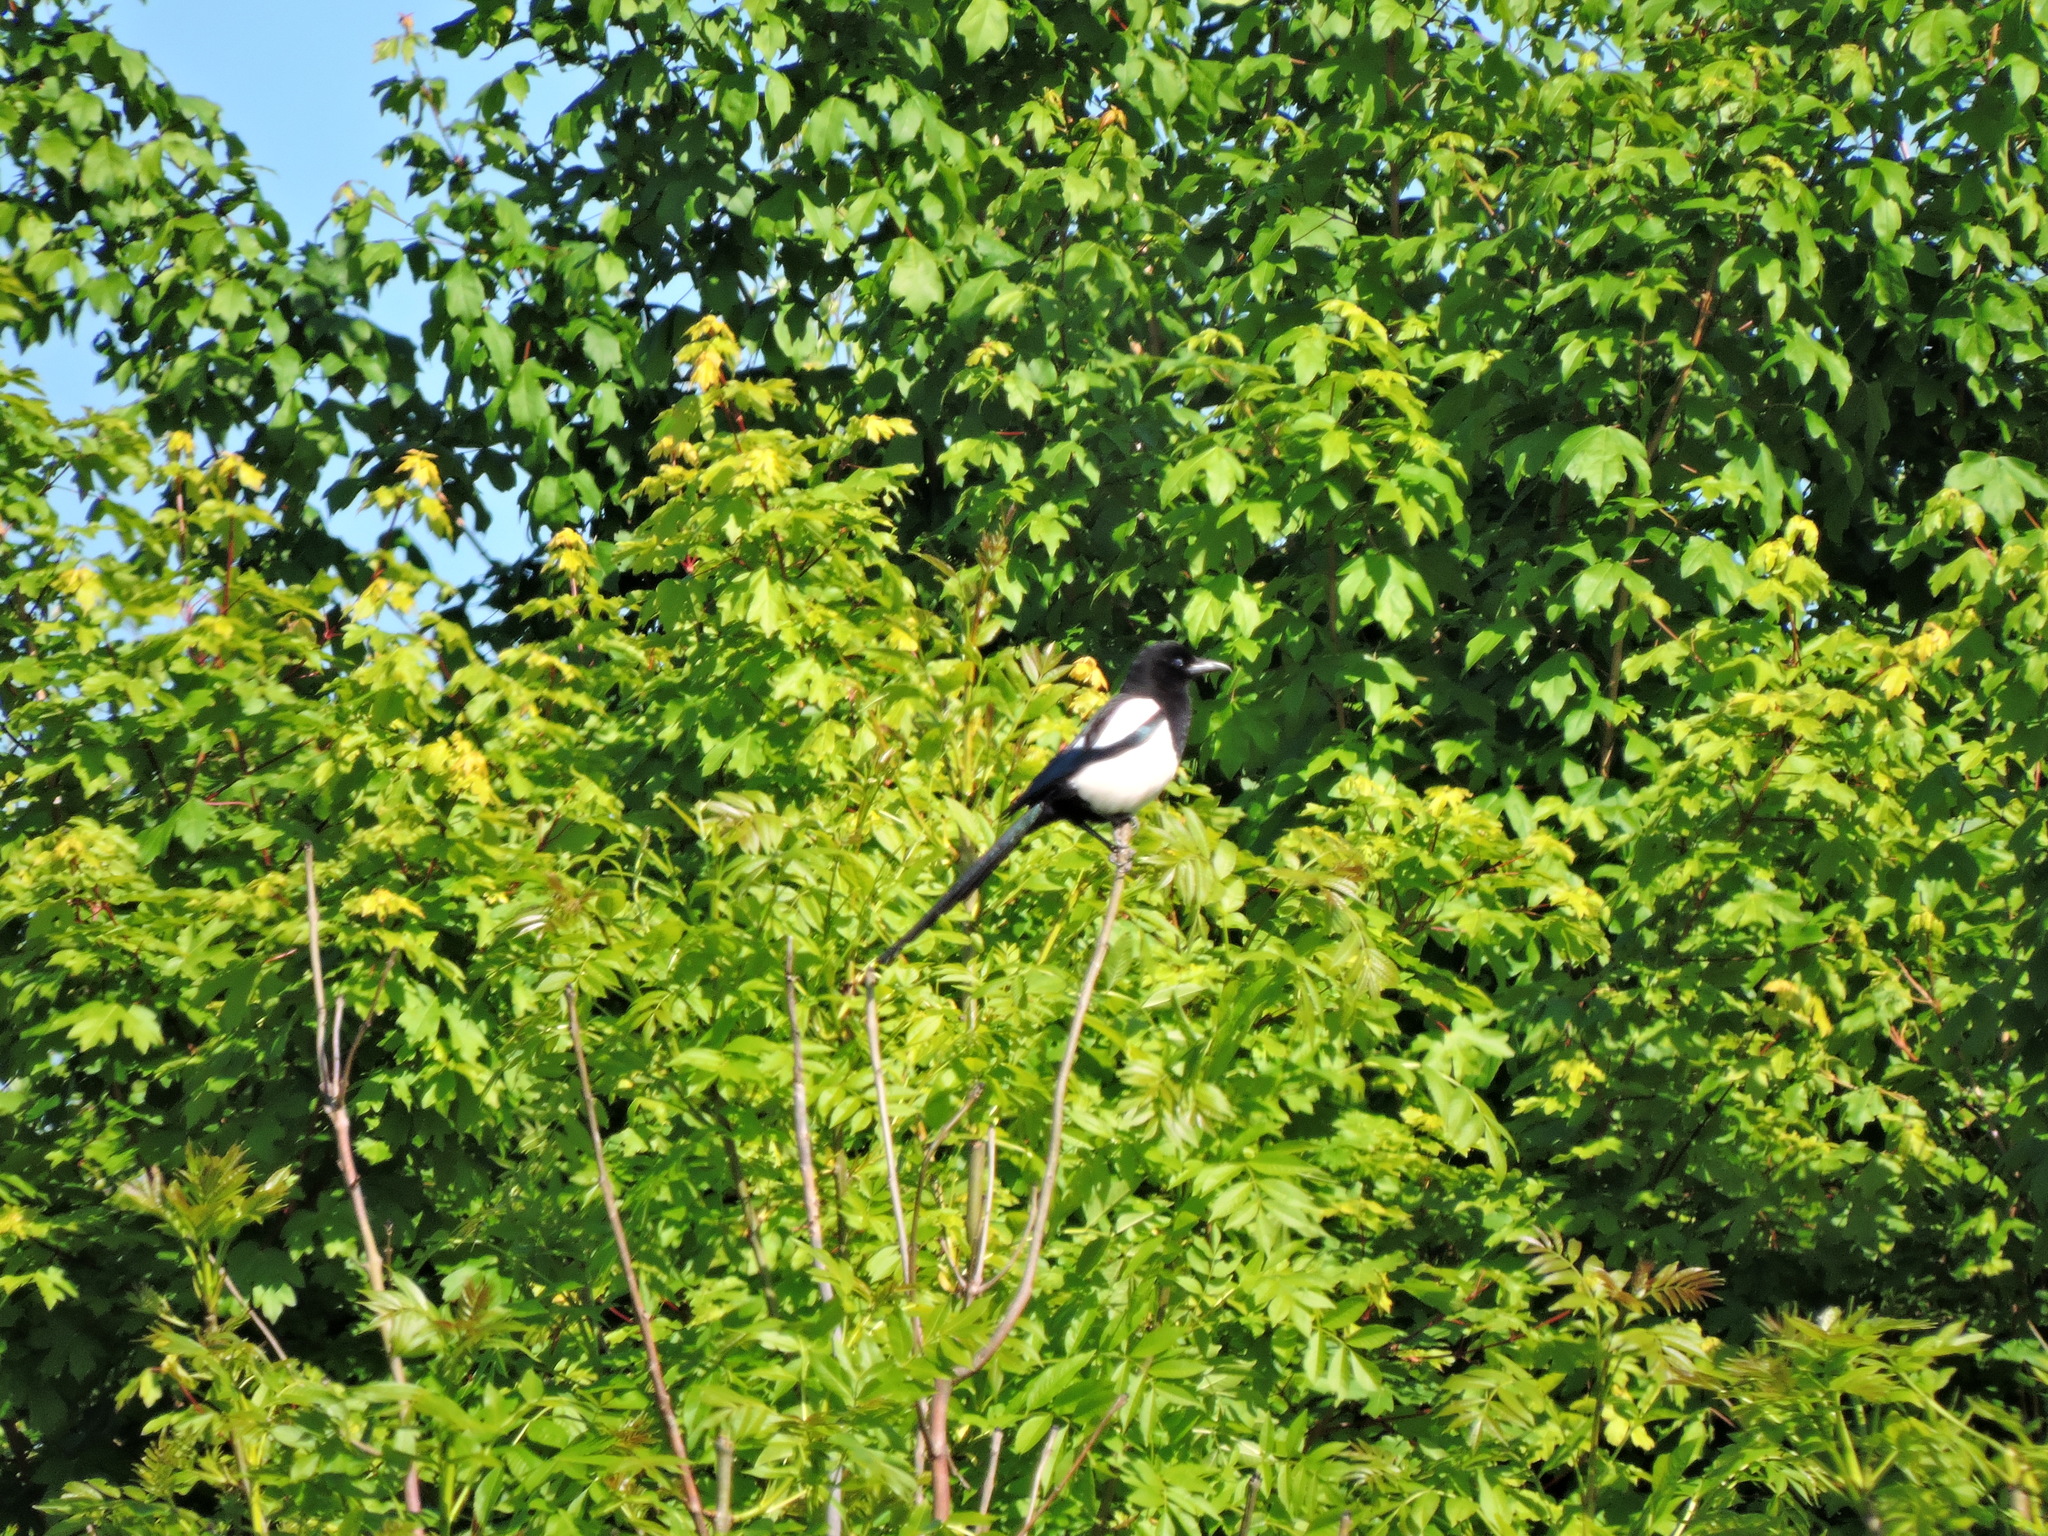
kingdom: Animalia
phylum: Chordata
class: Aves
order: Passeriformes
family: Corvidae
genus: Pica
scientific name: Pica pica
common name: Eurasian magpie
